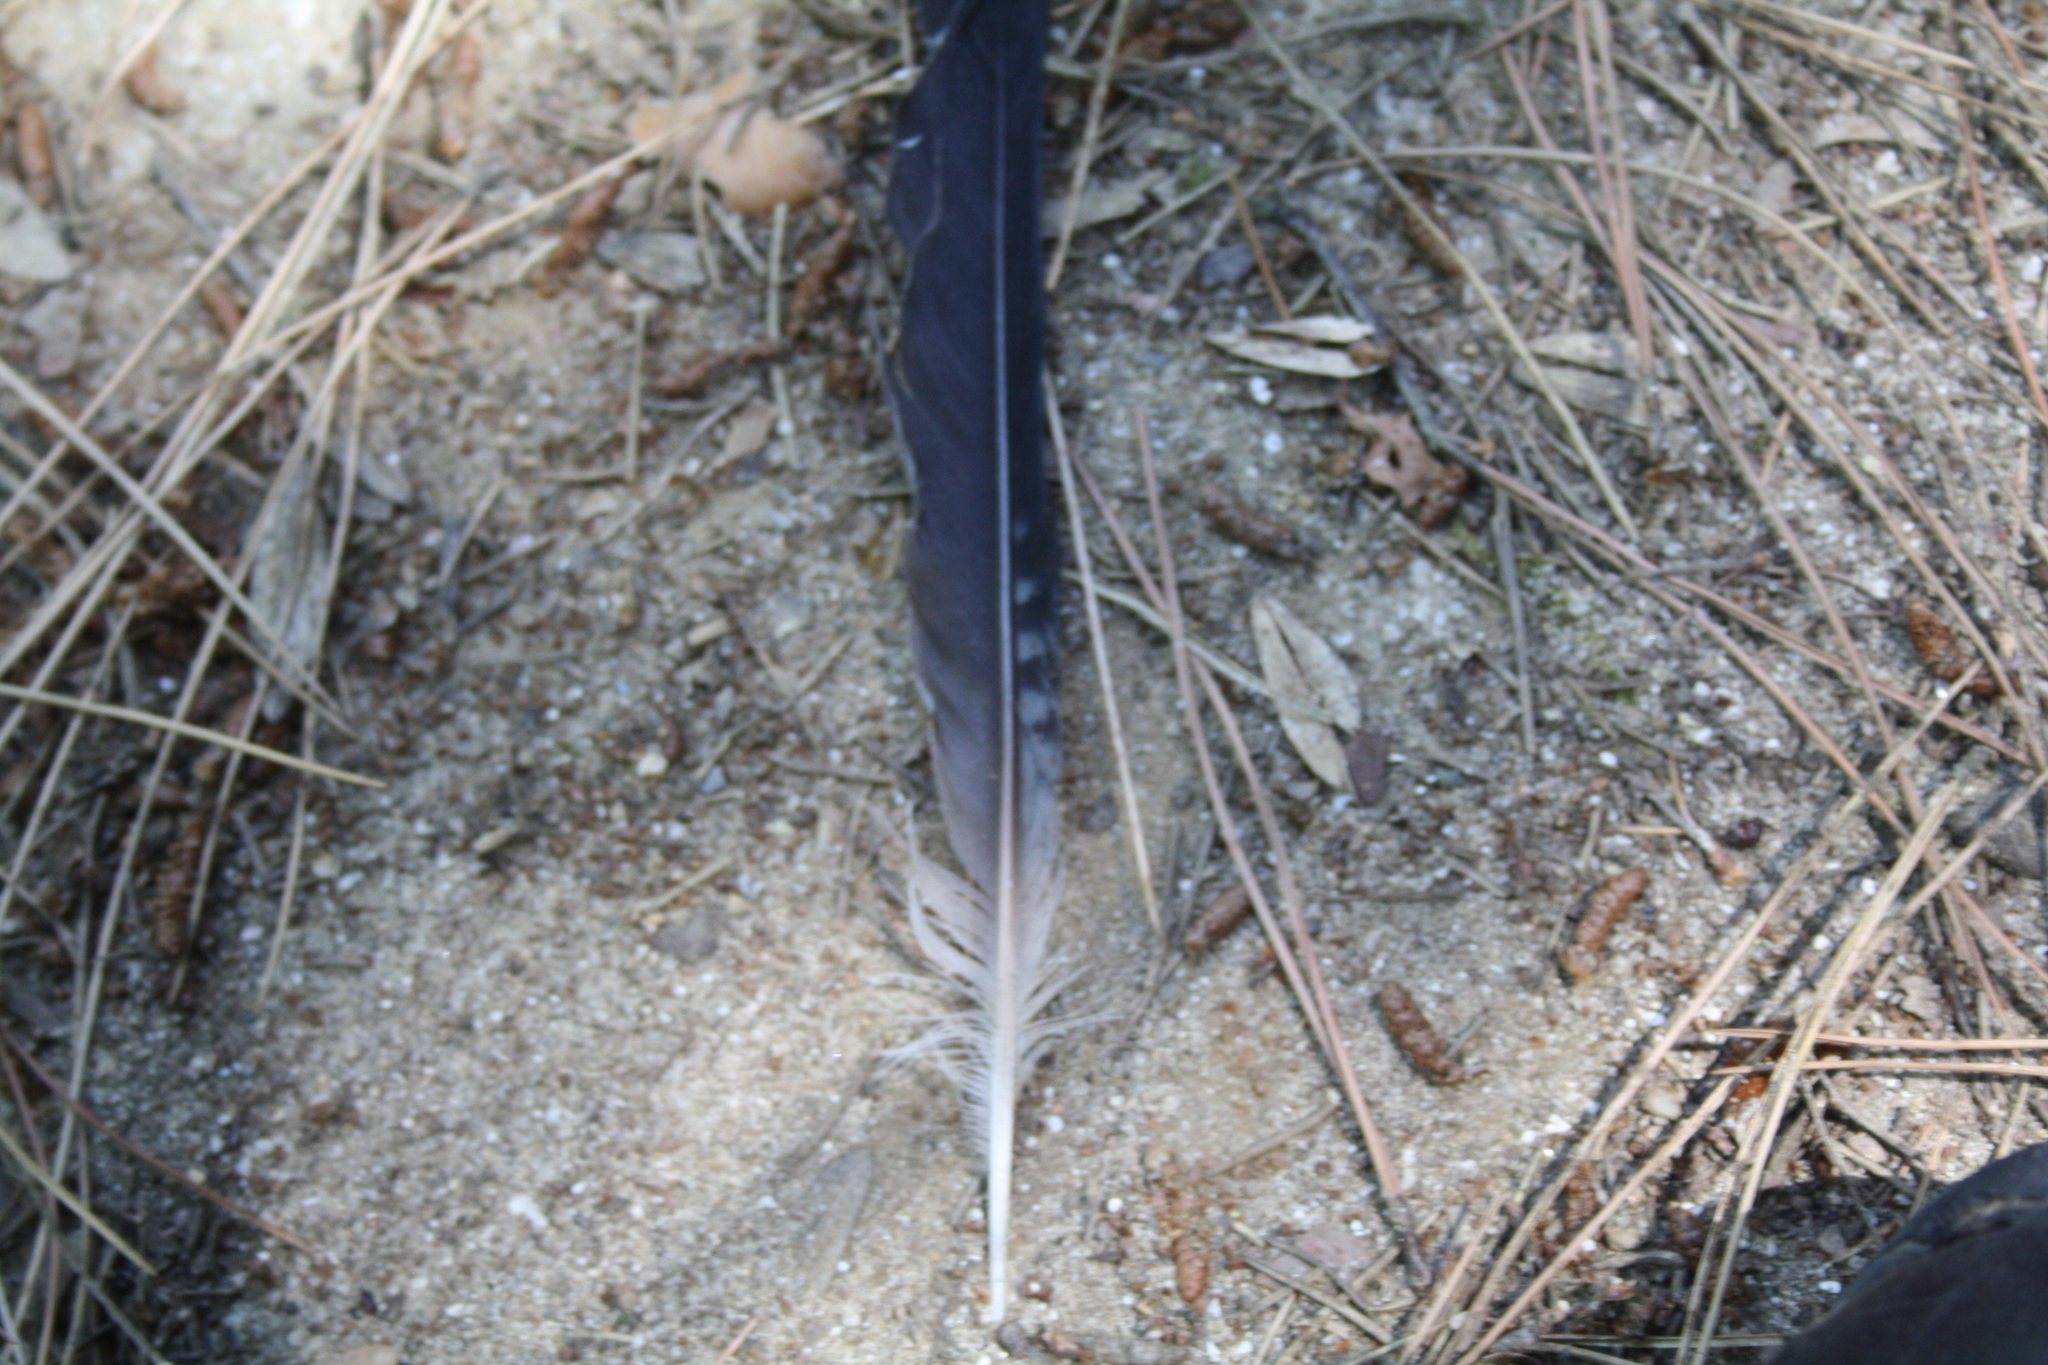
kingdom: Animalia
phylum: Chordata
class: Aves
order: Passeriformes
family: Corvidae
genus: Garrulus
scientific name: Garrulus glandarius
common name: Eurasian jay
